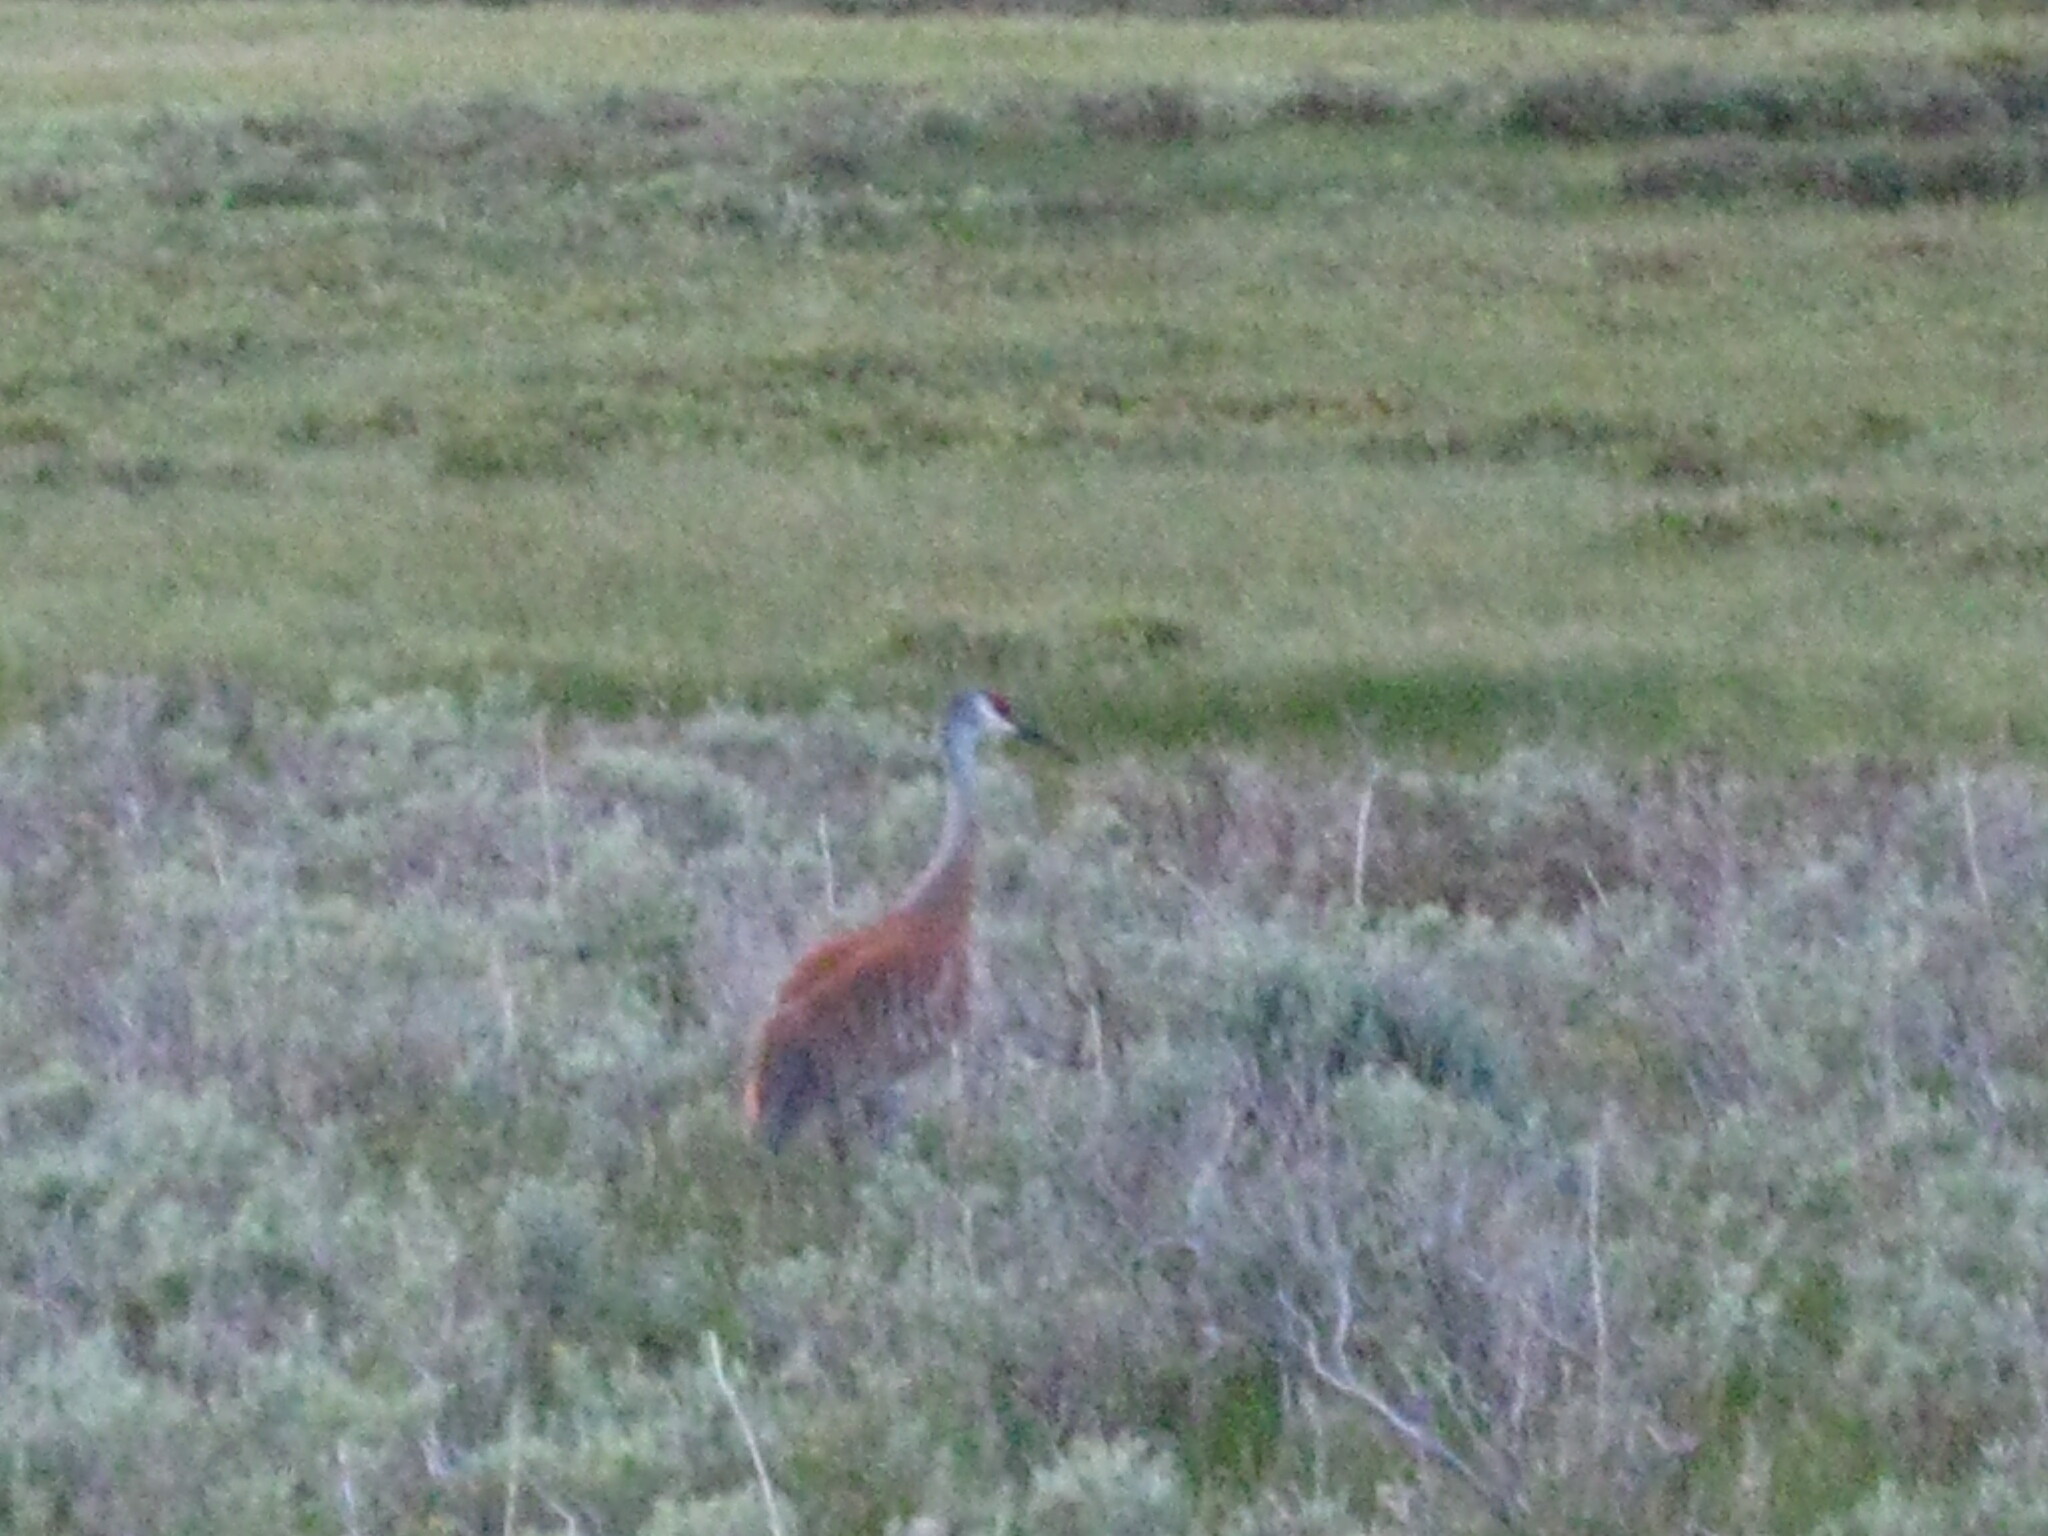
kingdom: Animalia
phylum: Chordata
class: Aves
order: Gruiformes
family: Gruidae
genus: Grus
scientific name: Grus canadensis
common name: Sandhill crane
